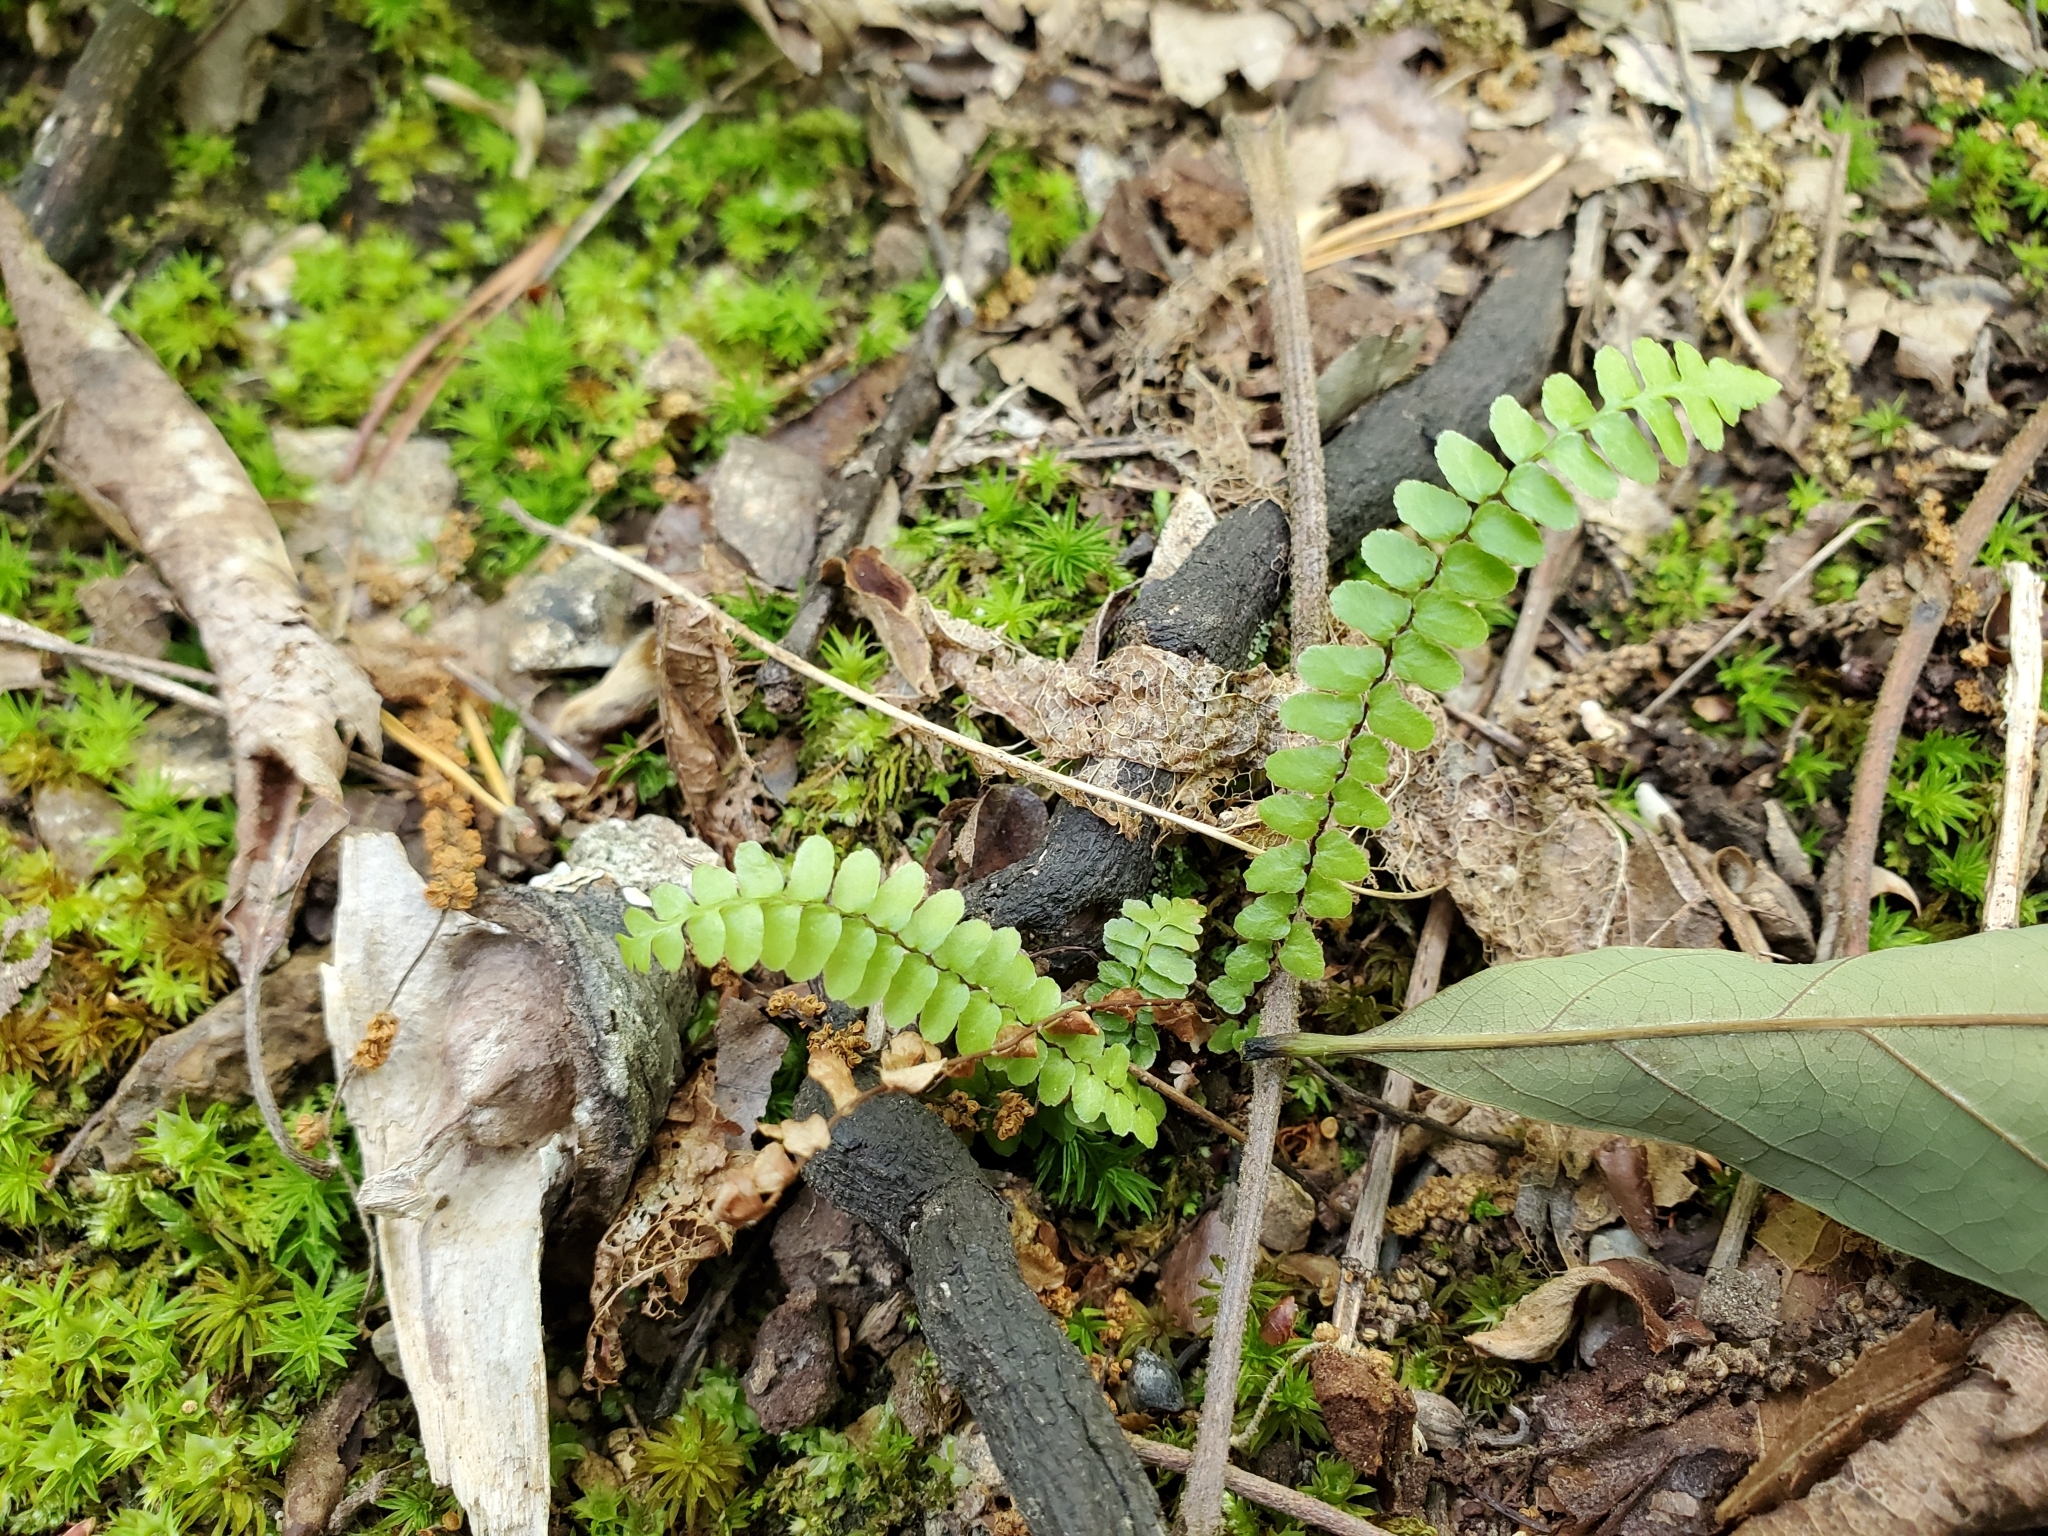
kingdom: Plantae
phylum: Tracheophyta
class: Polypodiopsida
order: Polypodiales
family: Aspleniaceae
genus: Asplenium
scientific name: Asplenium platyneuron
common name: Ebony spleenwort
